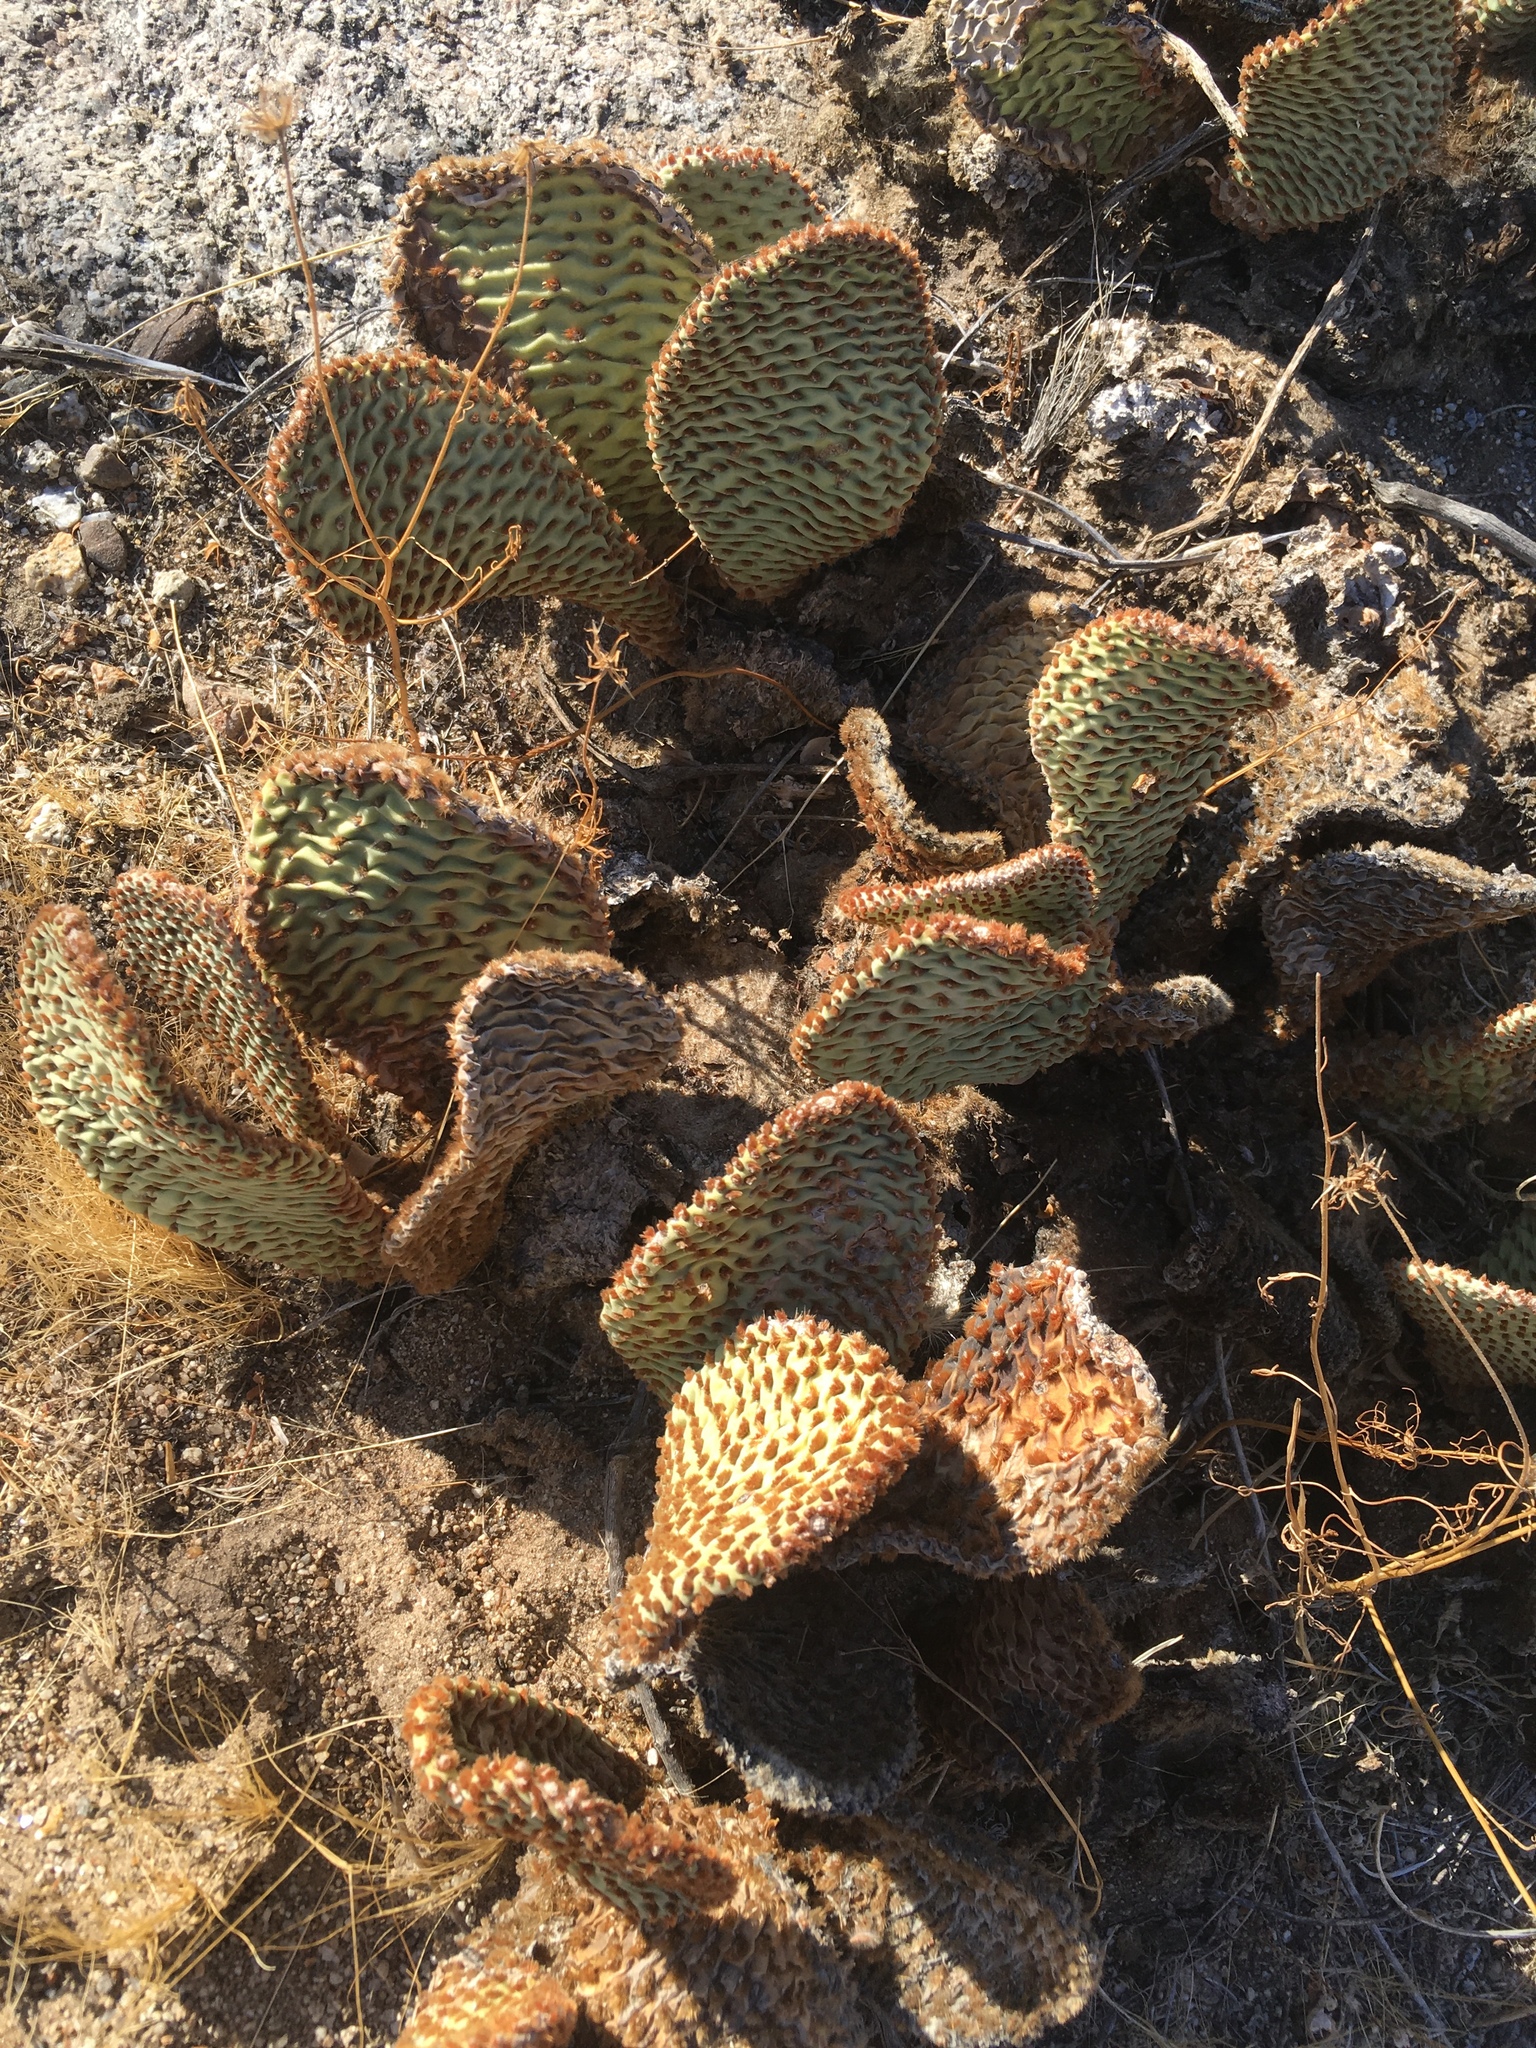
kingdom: Plantae
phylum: Tracheophyta
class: Magnoliopsida
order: Caryophyllales
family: Cactaceae
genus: Opuntia
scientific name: Opuntia basilaris
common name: Beavertail prickly-pear
